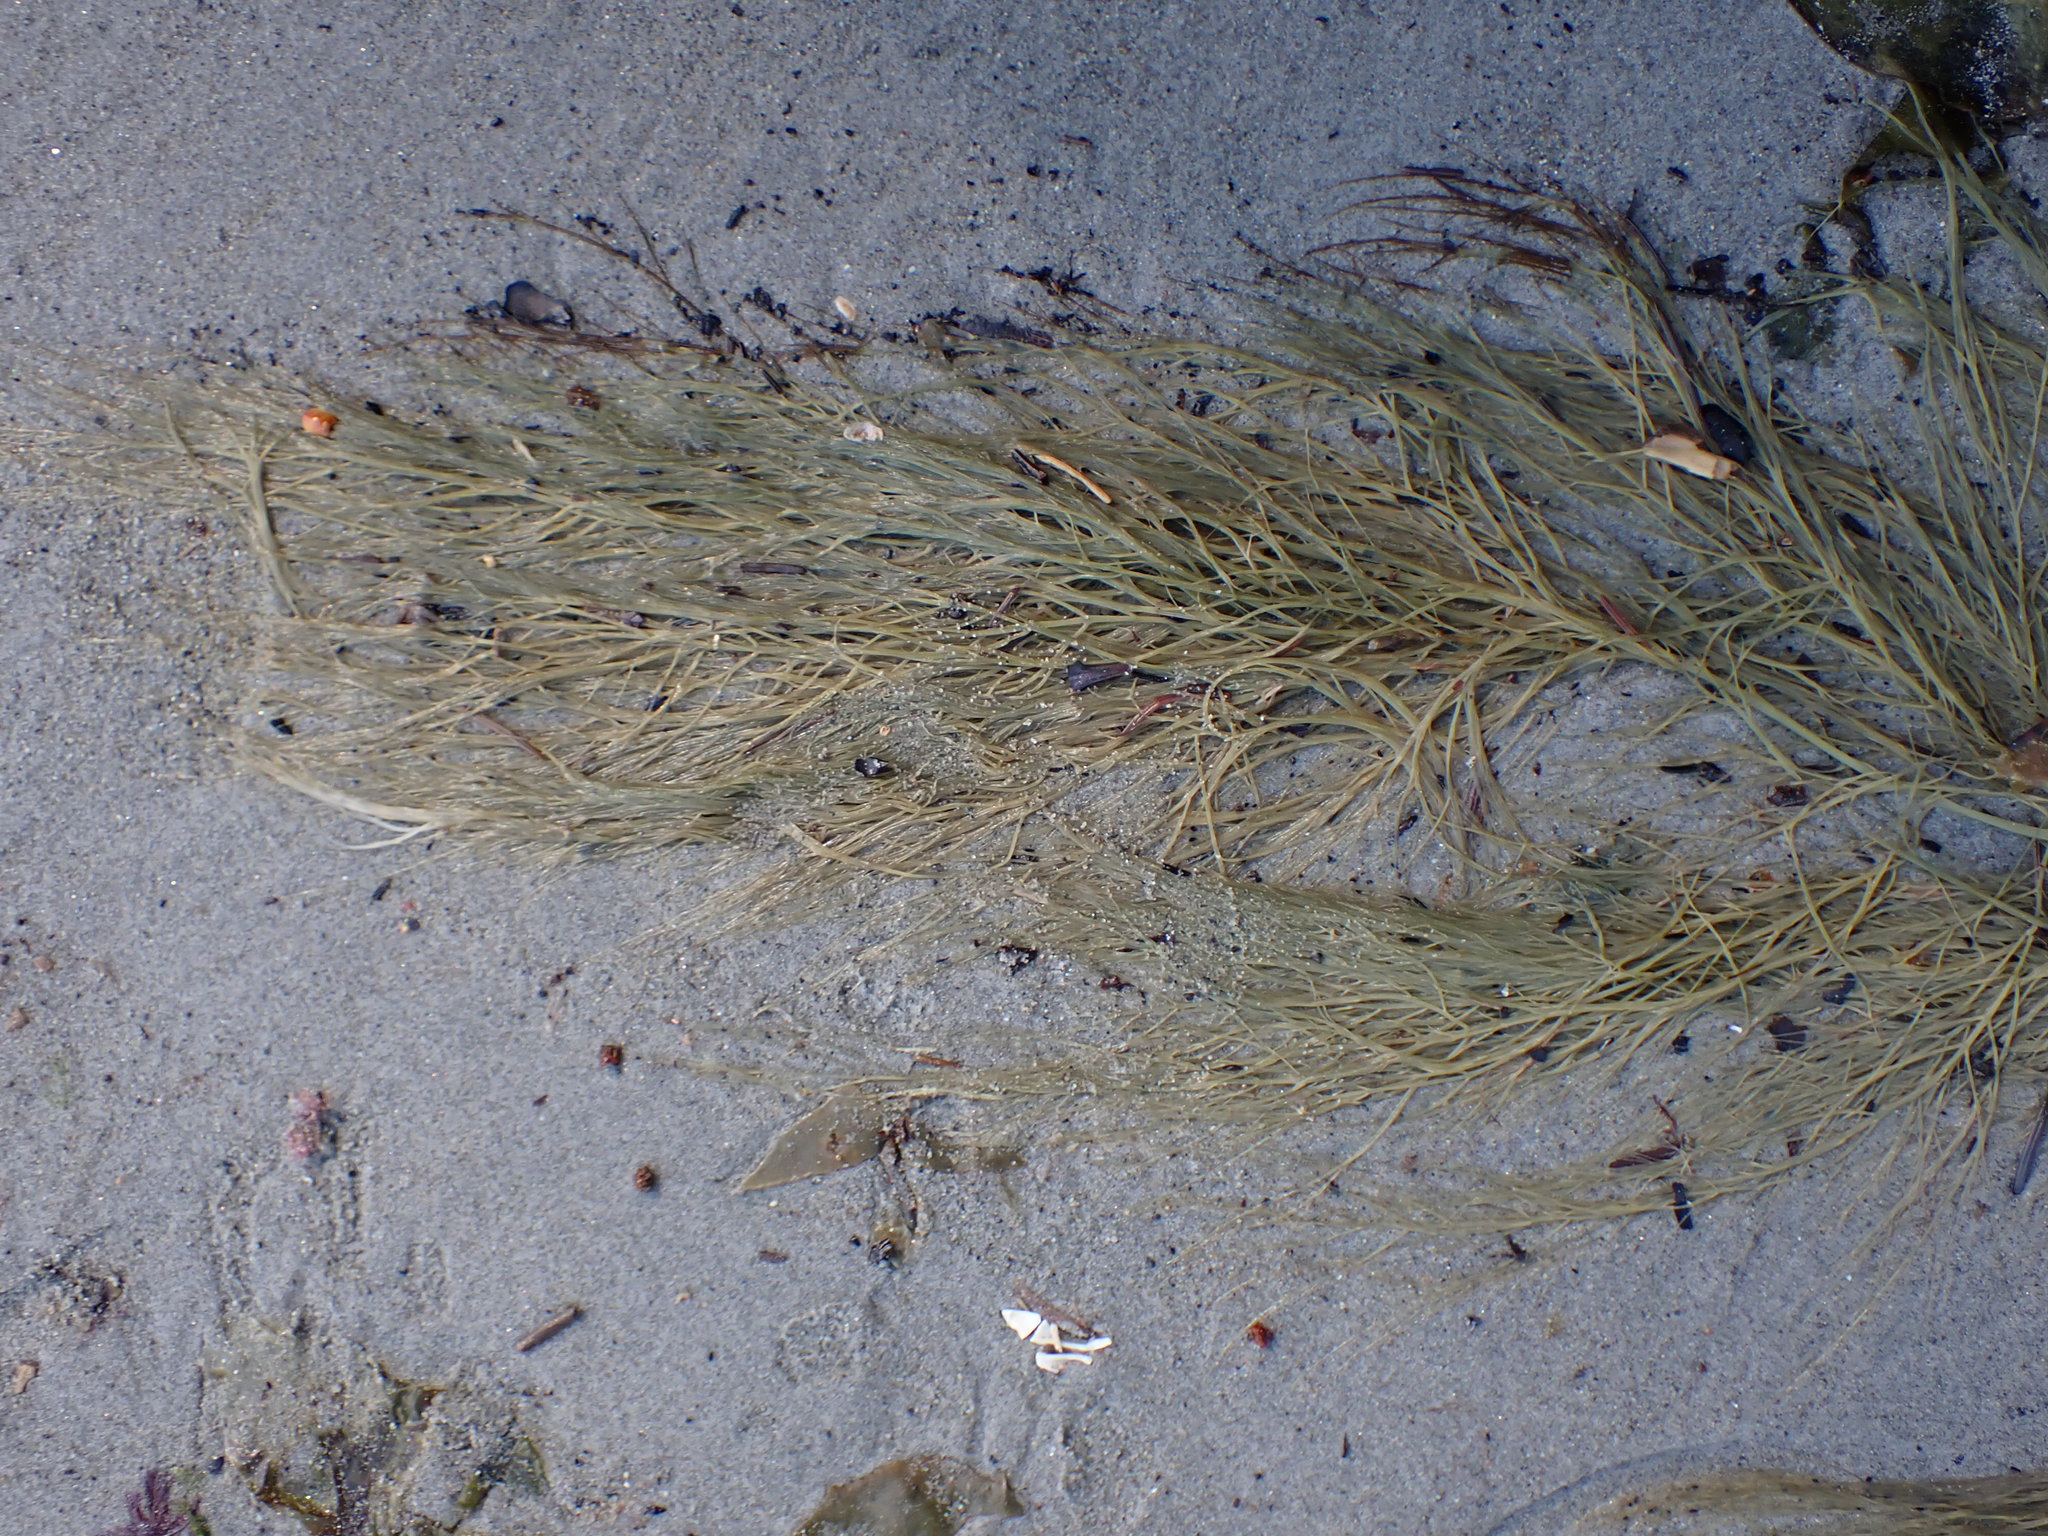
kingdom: Chromista
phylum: Ochrophyta
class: Phaeophyceae
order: Desmarestiales
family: Desmarestiaceae
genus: Desmarestia
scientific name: Desmarestia viridis
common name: Stringy acid kelp
